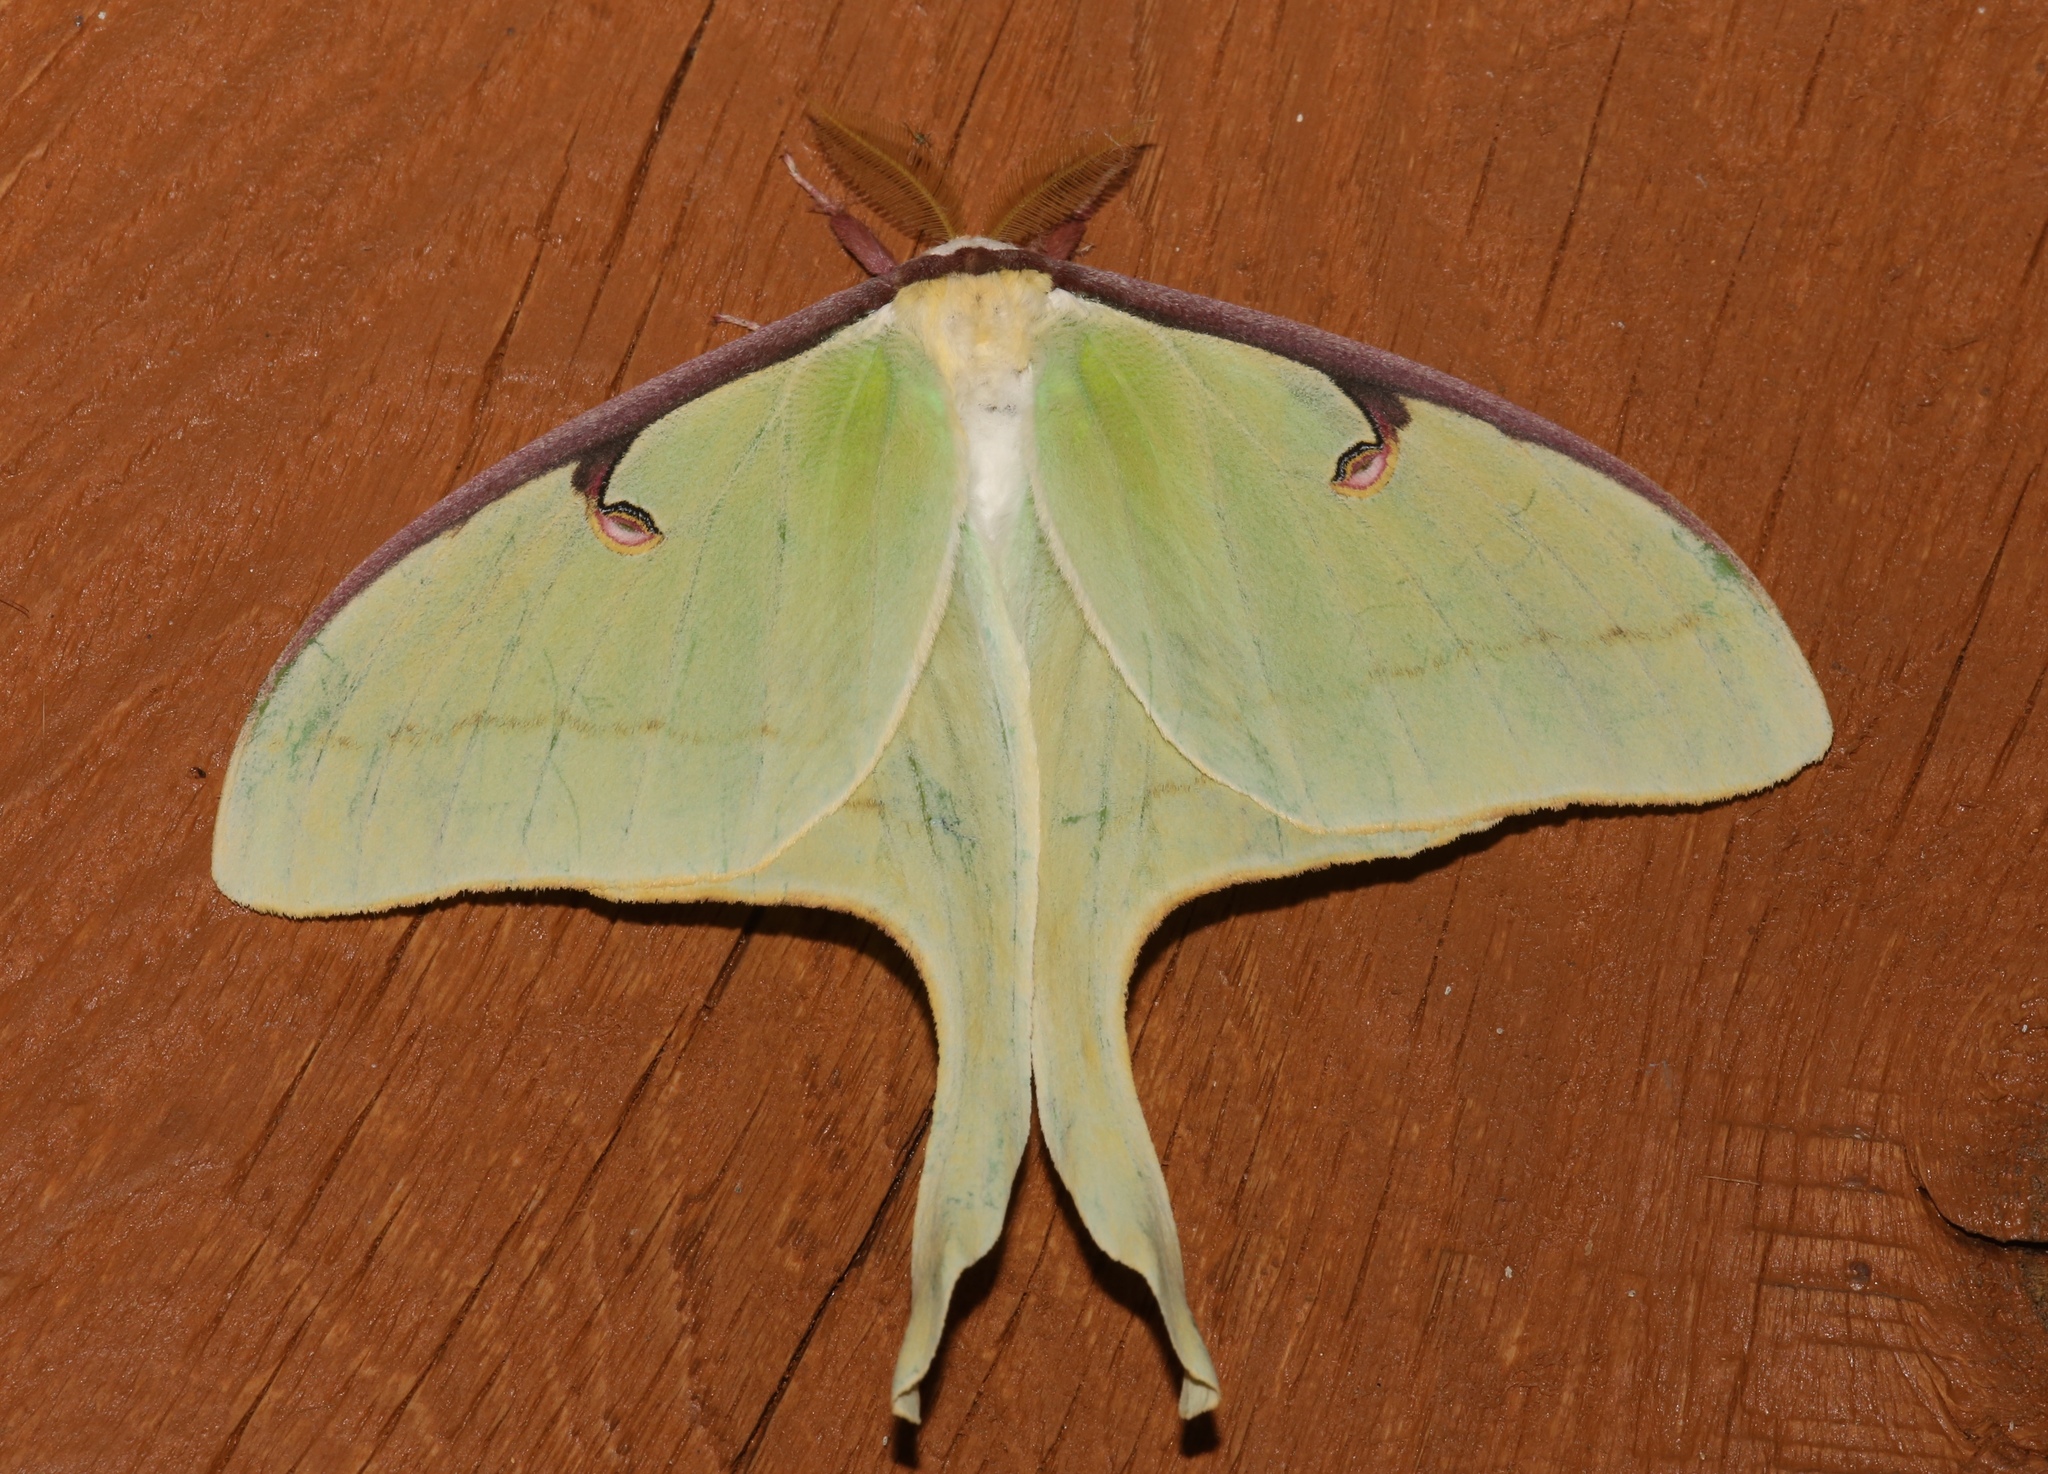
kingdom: Animalia
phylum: Arthropoda
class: Insecta
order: Lepidoptera
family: Saturniidae
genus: Actias
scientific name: Actias luna
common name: Luna moth
